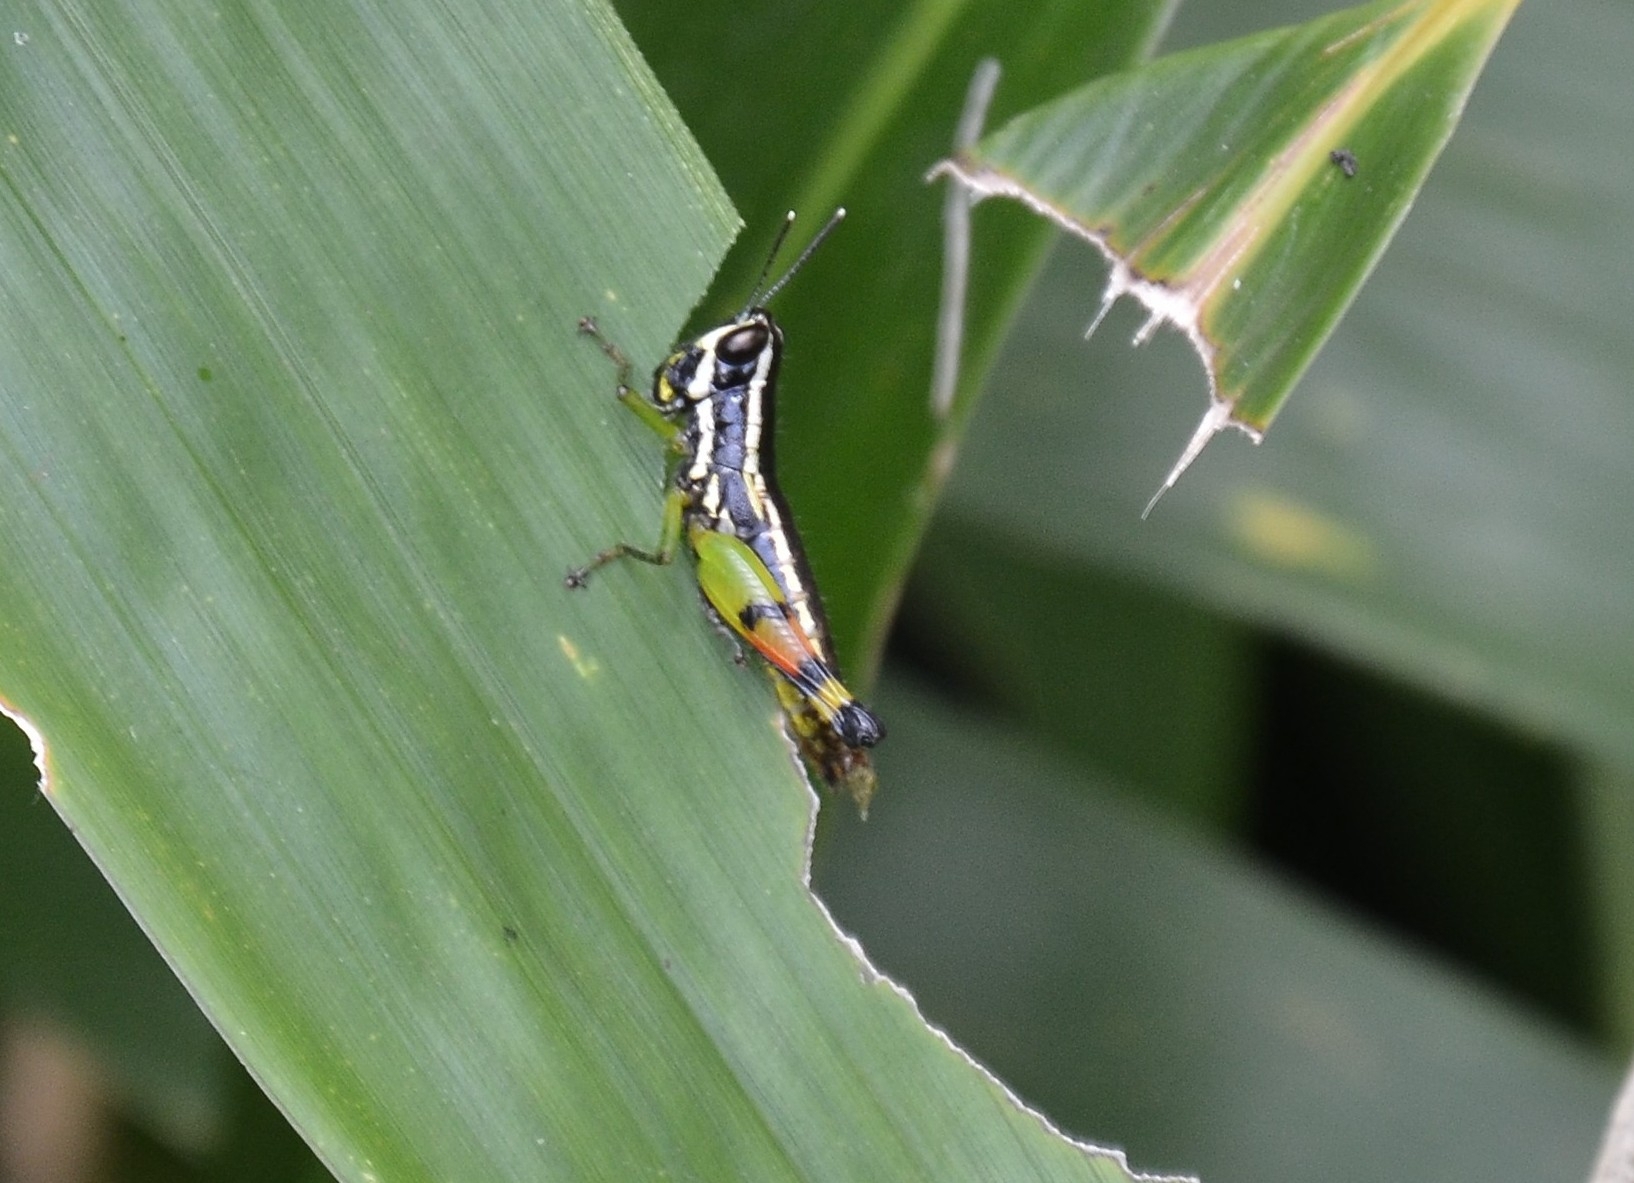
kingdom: Animalia
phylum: Arthropoda
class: Insecta
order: Orthoptera
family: Acrididae
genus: Chitaura
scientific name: Chitaura indica
